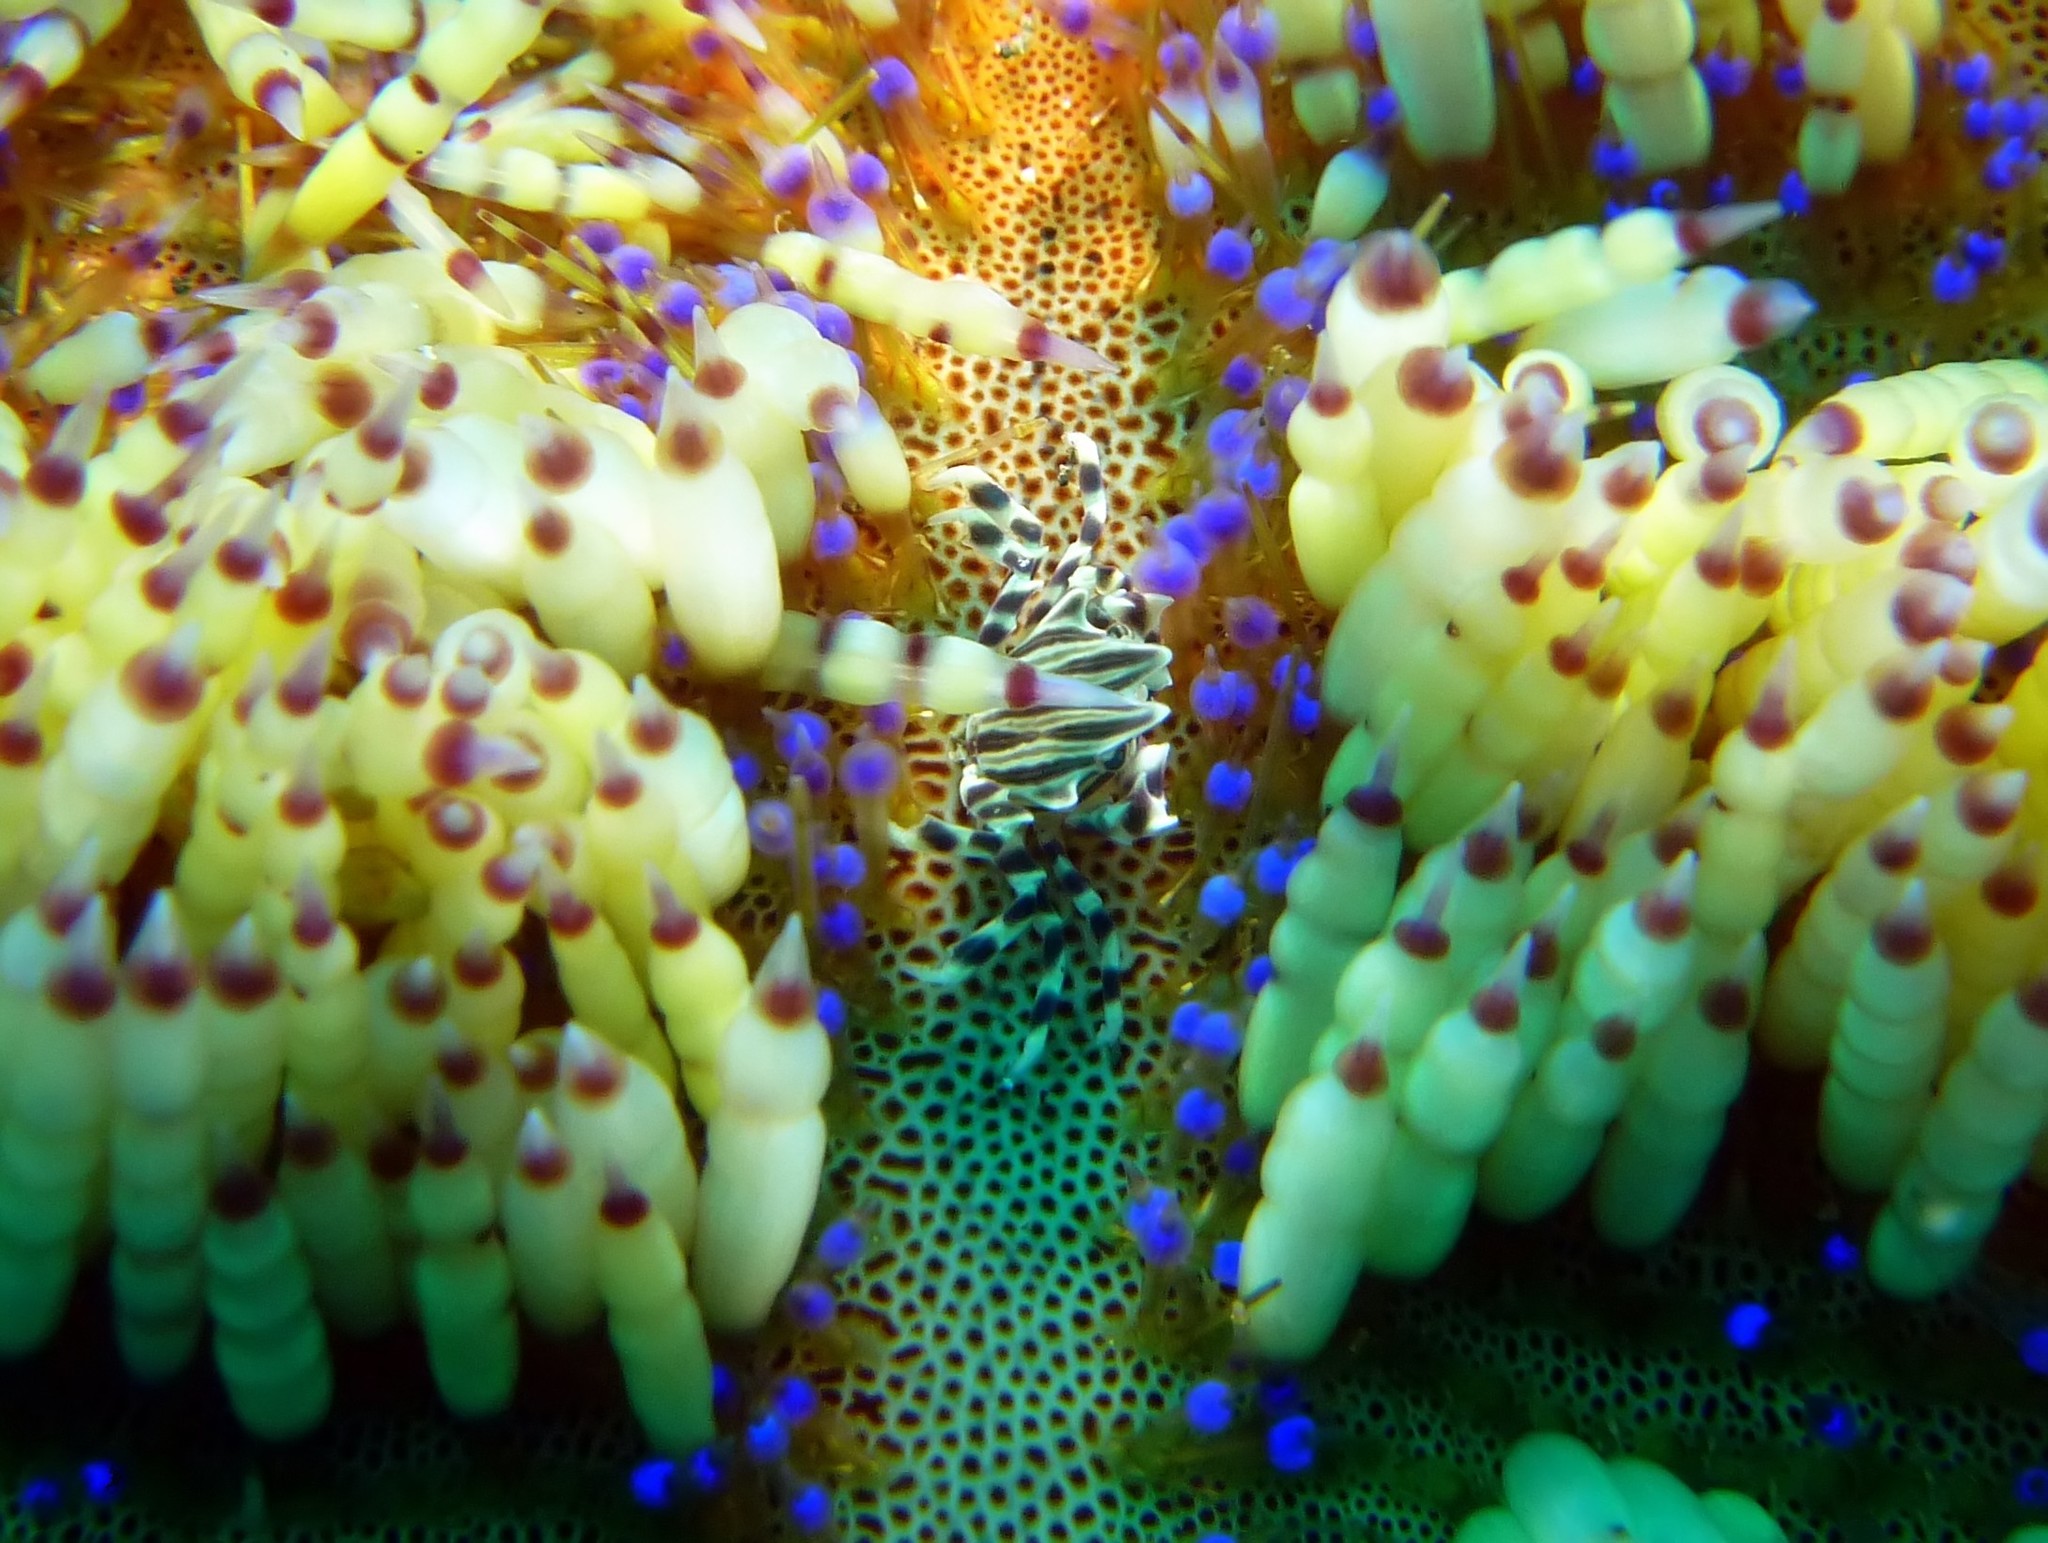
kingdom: Animalia
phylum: Arthropoda
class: Malacostraca
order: Decapoda
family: Pilumnidae
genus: Zebrida
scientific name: Zebrida adamsii
